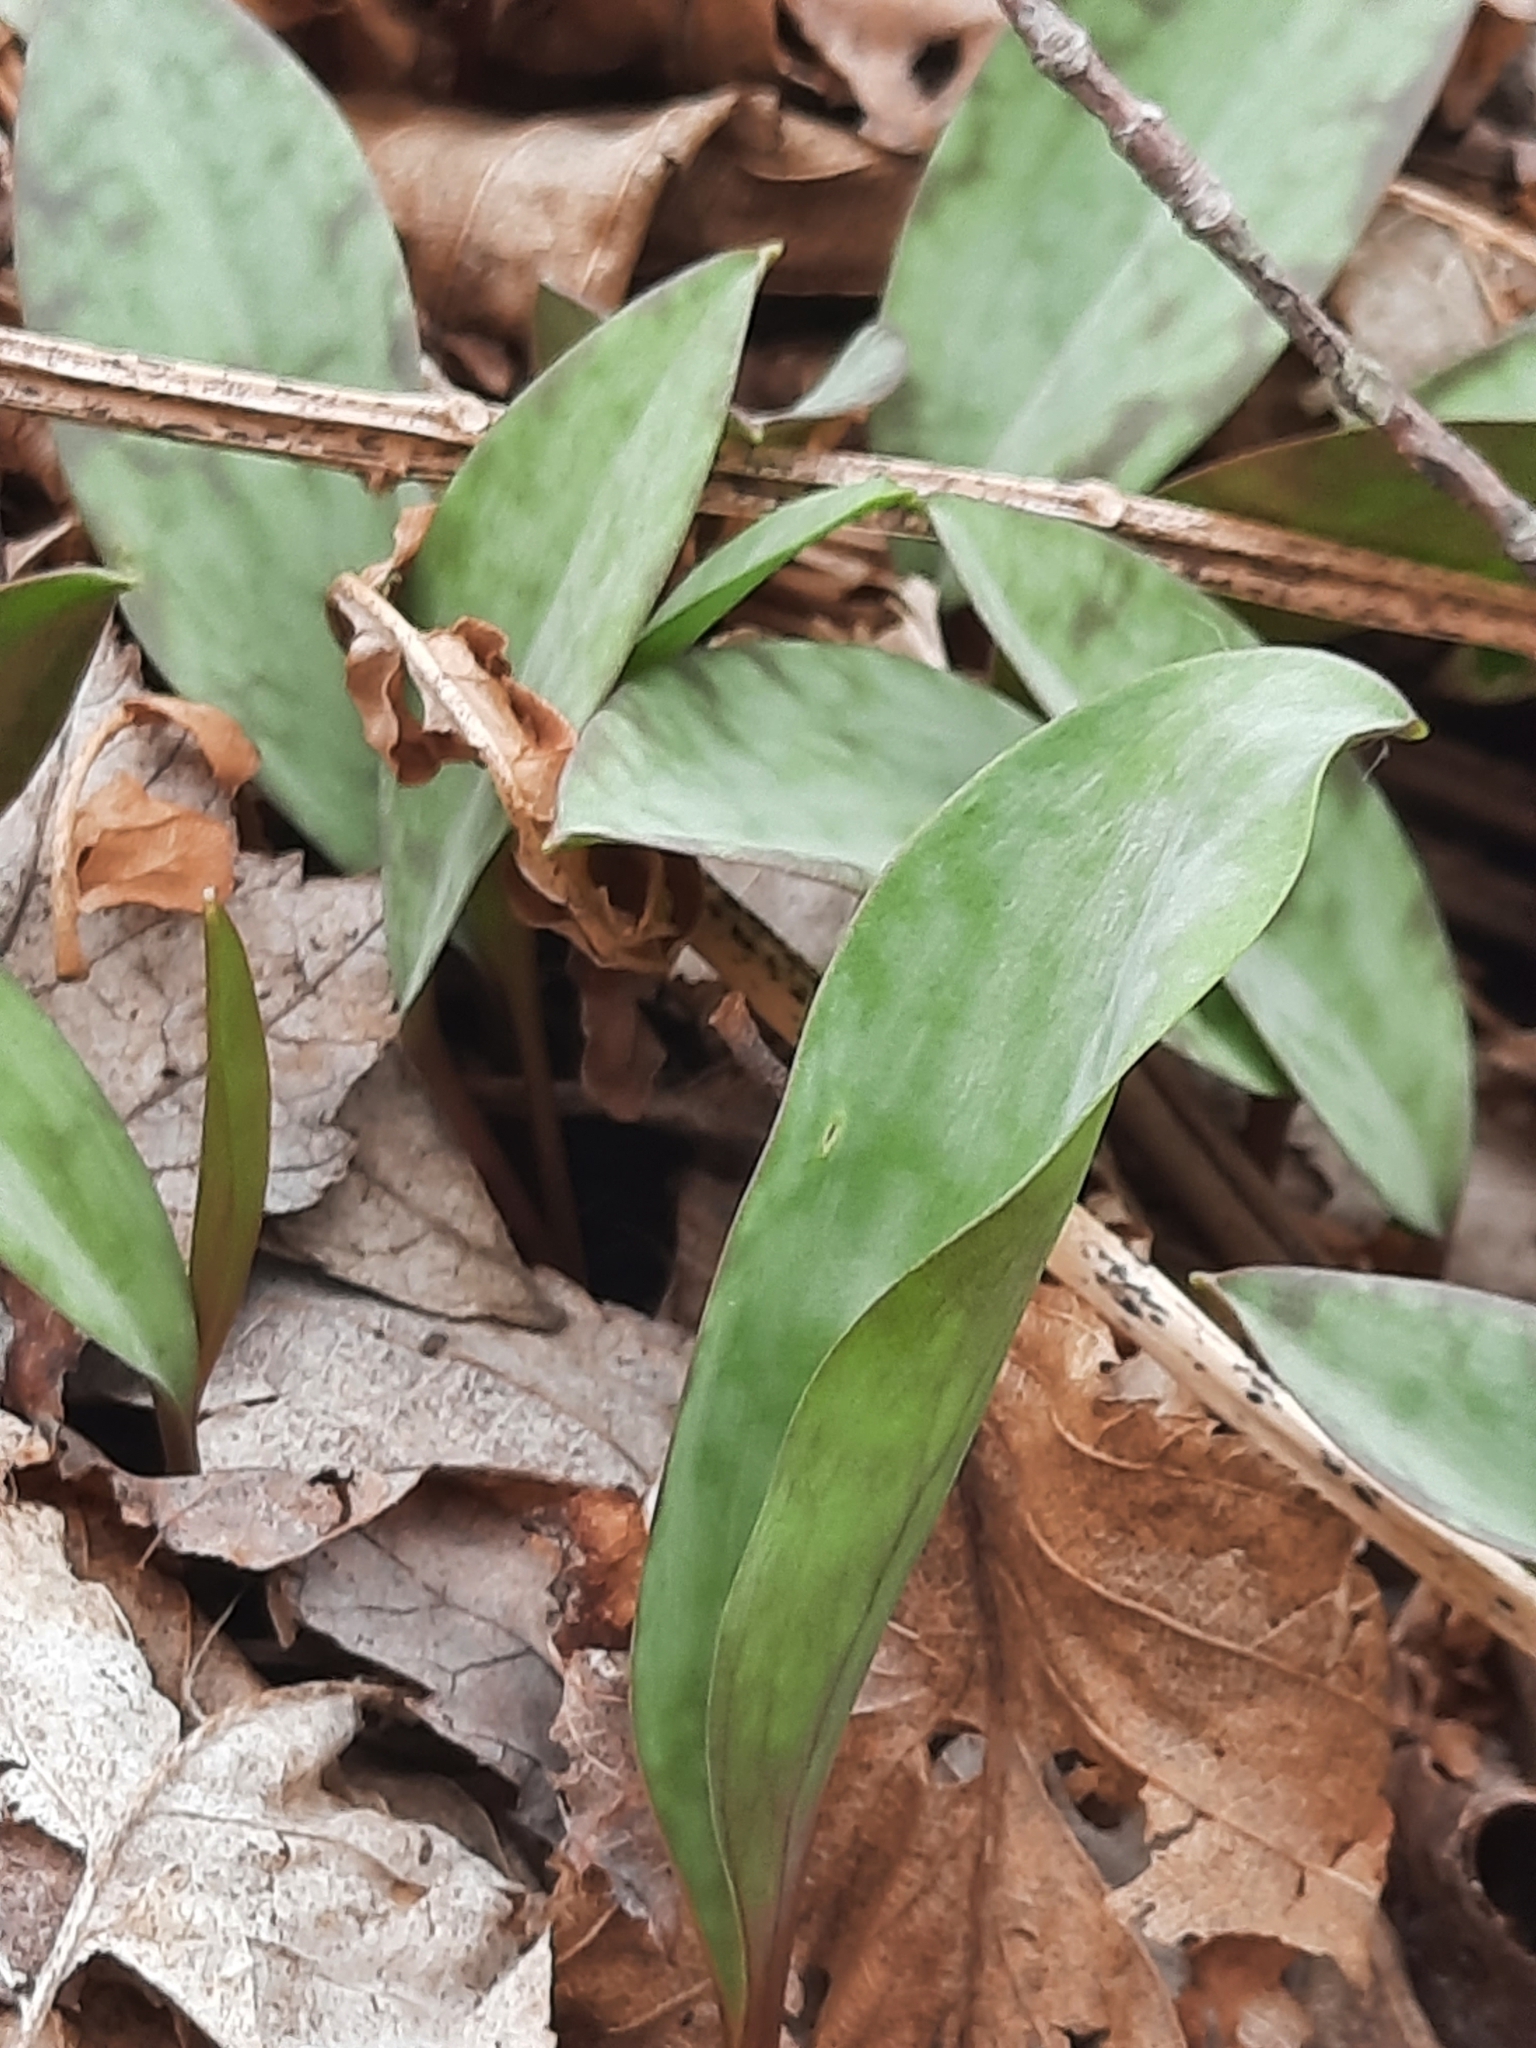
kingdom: Plantae
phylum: Tracheophyta
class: Liliopsida
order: Liliales
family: Liliaceae
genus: Erythronium
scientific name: Erythronium americanum
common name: Yellow adder's-tongue
